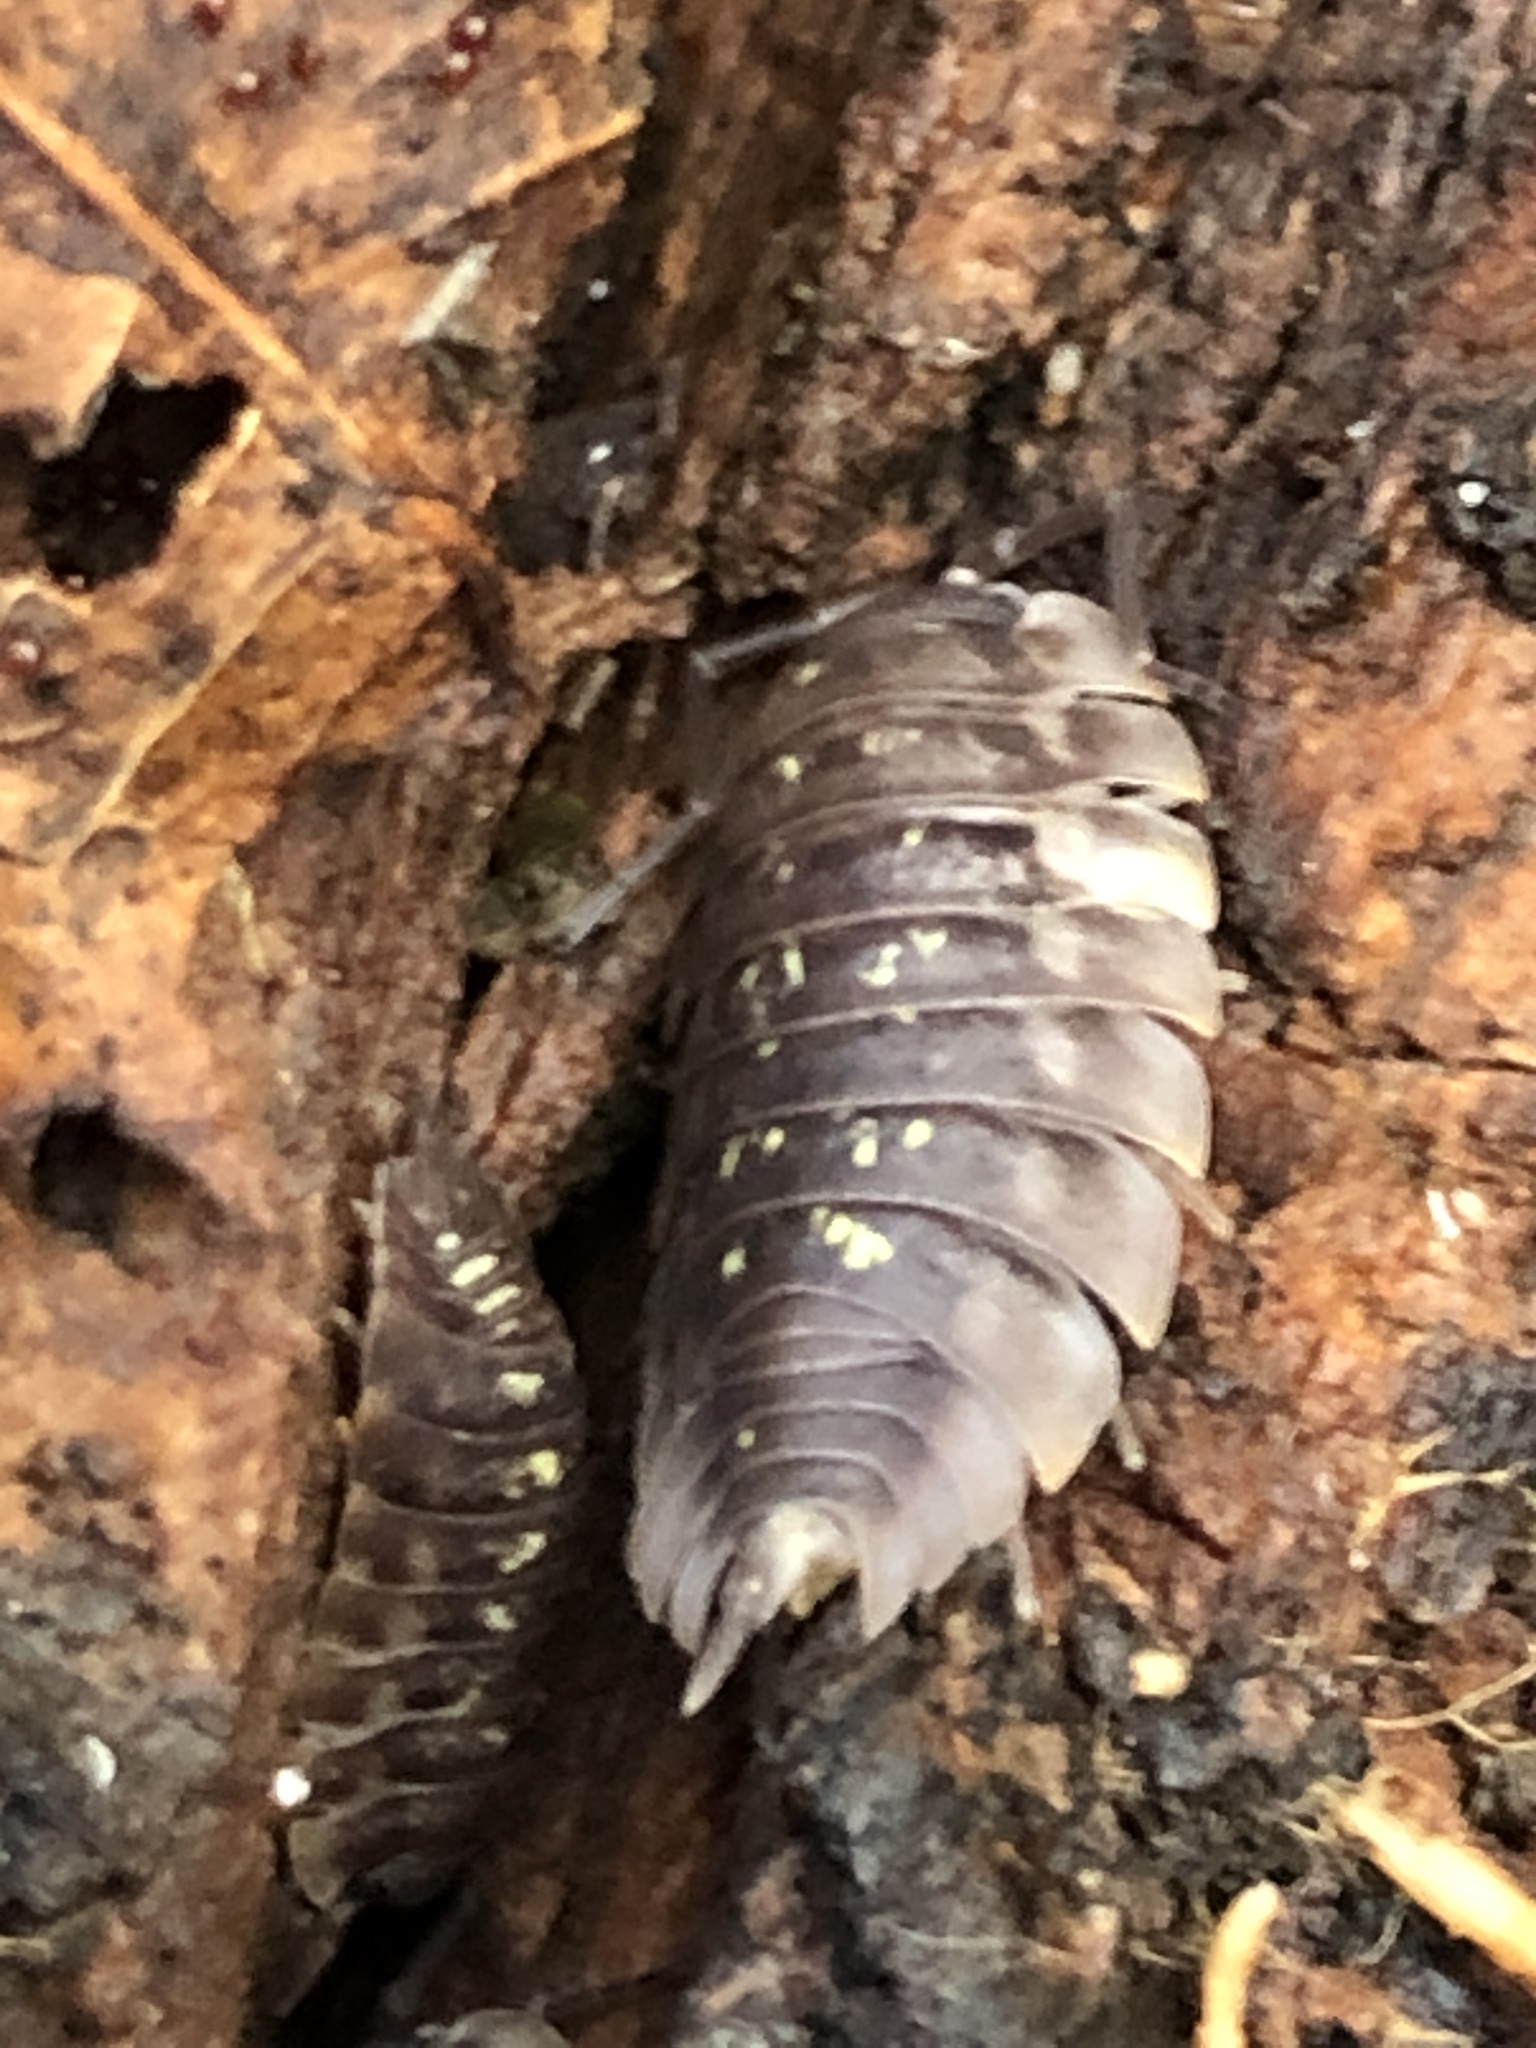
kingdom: Animalia
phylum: Arthropoda
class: Malacostraca
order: Isopoda
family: Oniscidae
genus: Oniscus
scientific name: Oniscus asellus
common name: Common shiny woodlouse
